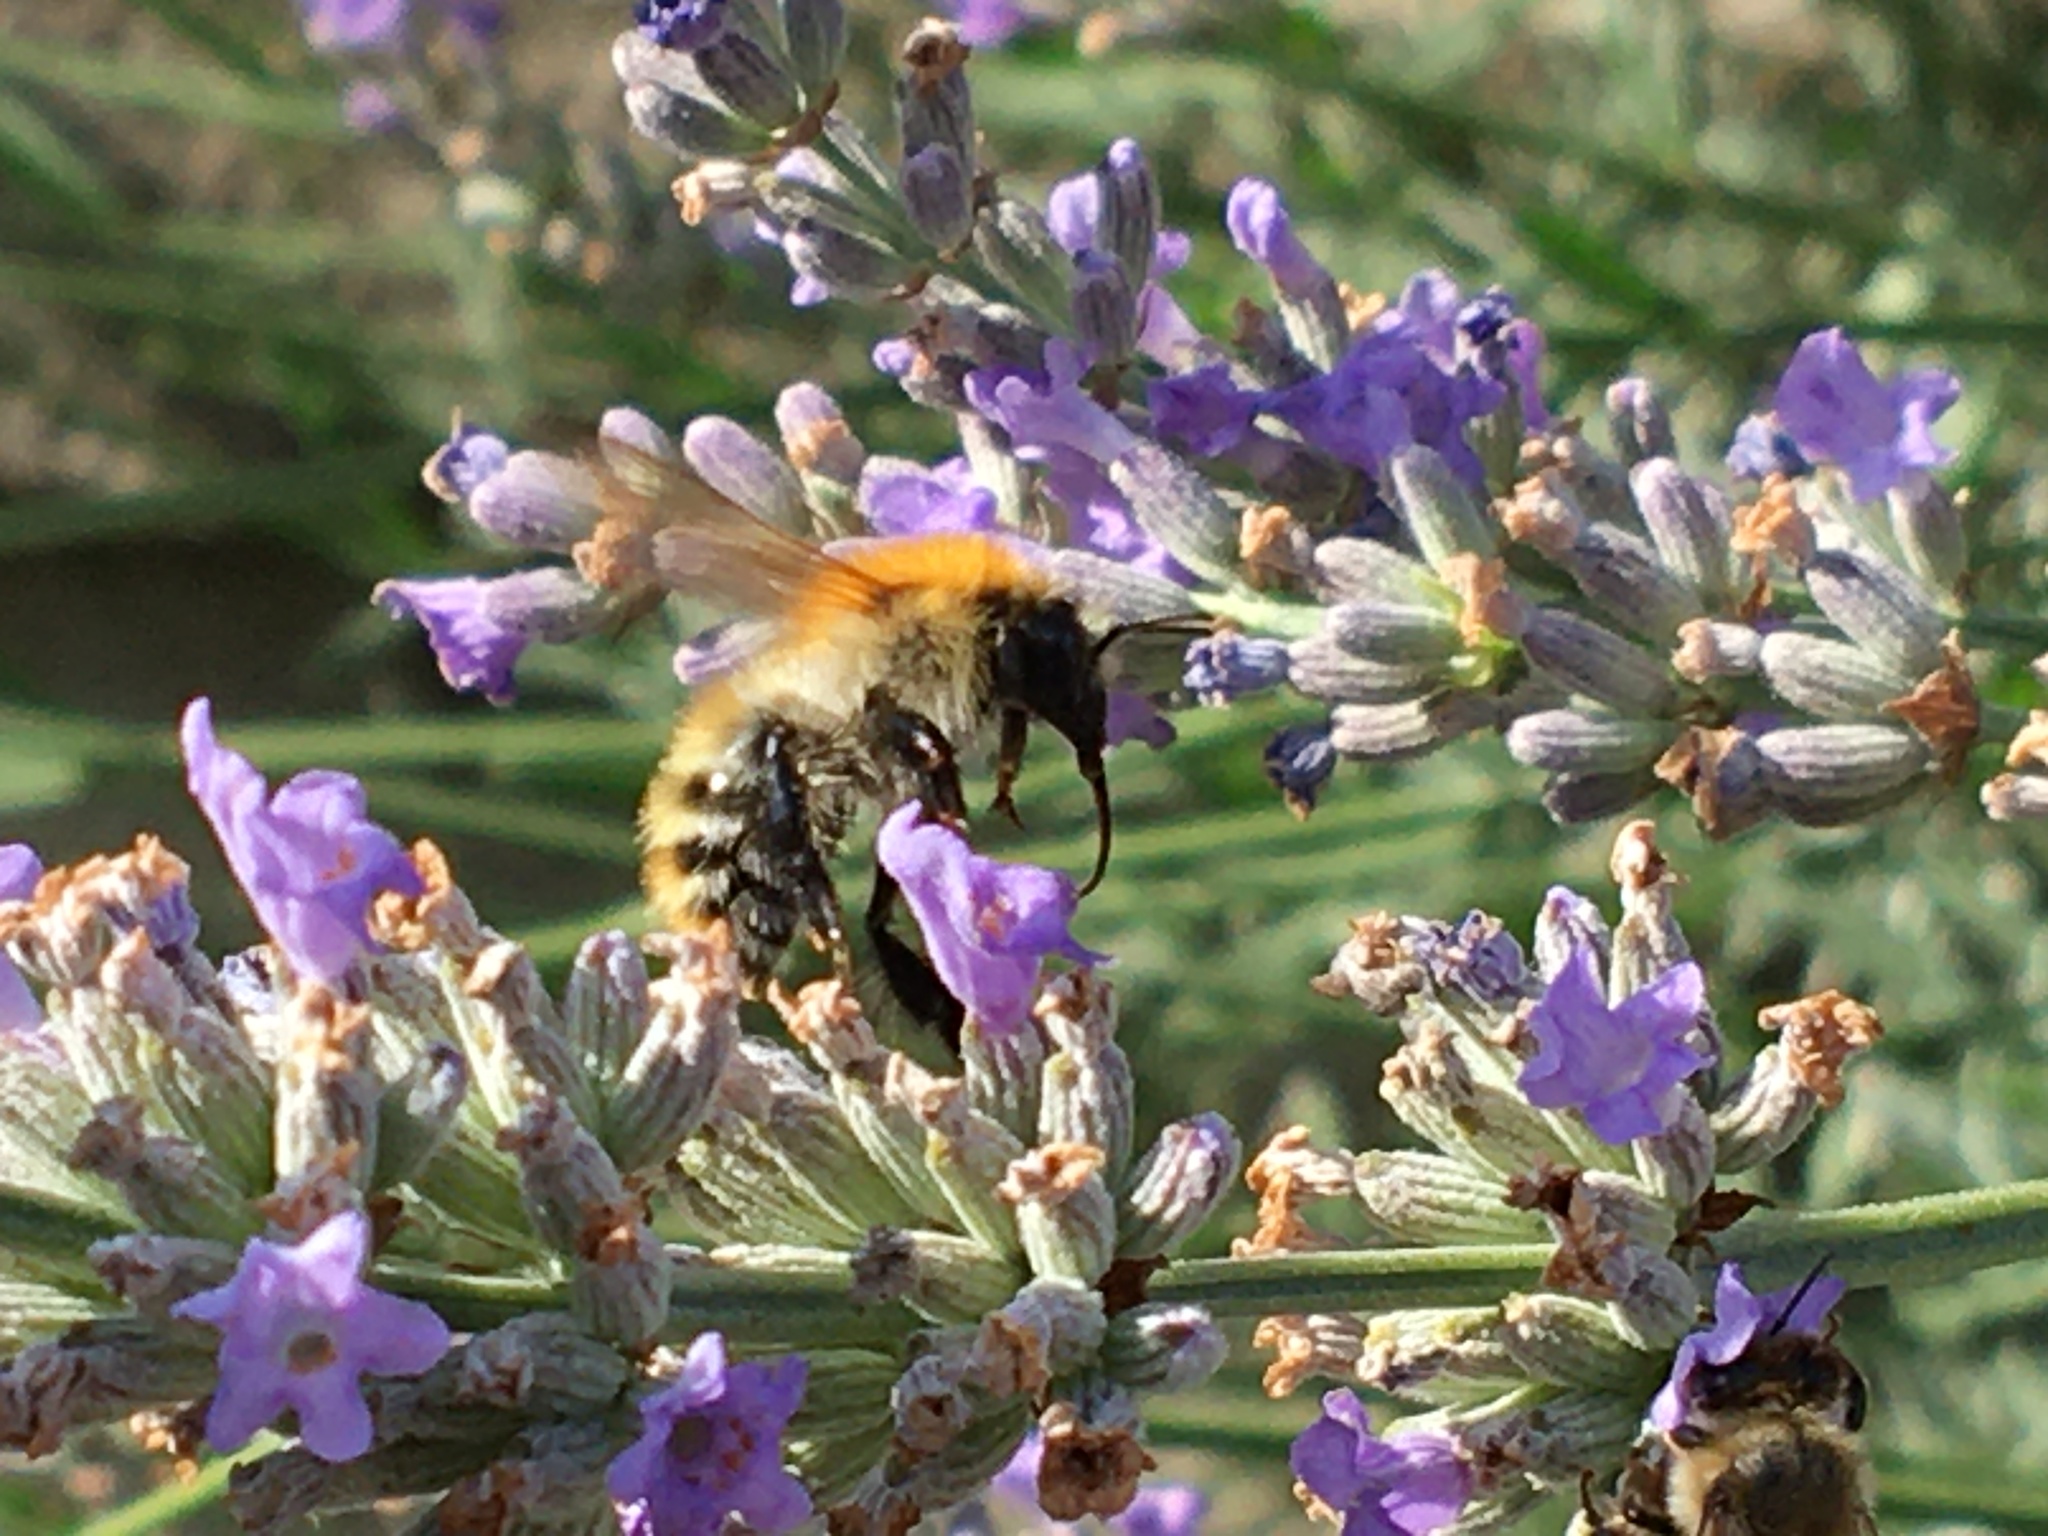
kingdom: Animalia
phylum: Arthropoda
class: Insecta
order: Hymenoptera
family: Apidae
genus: Bombus
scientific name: Bombus pascuorum
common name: Common carder bee
